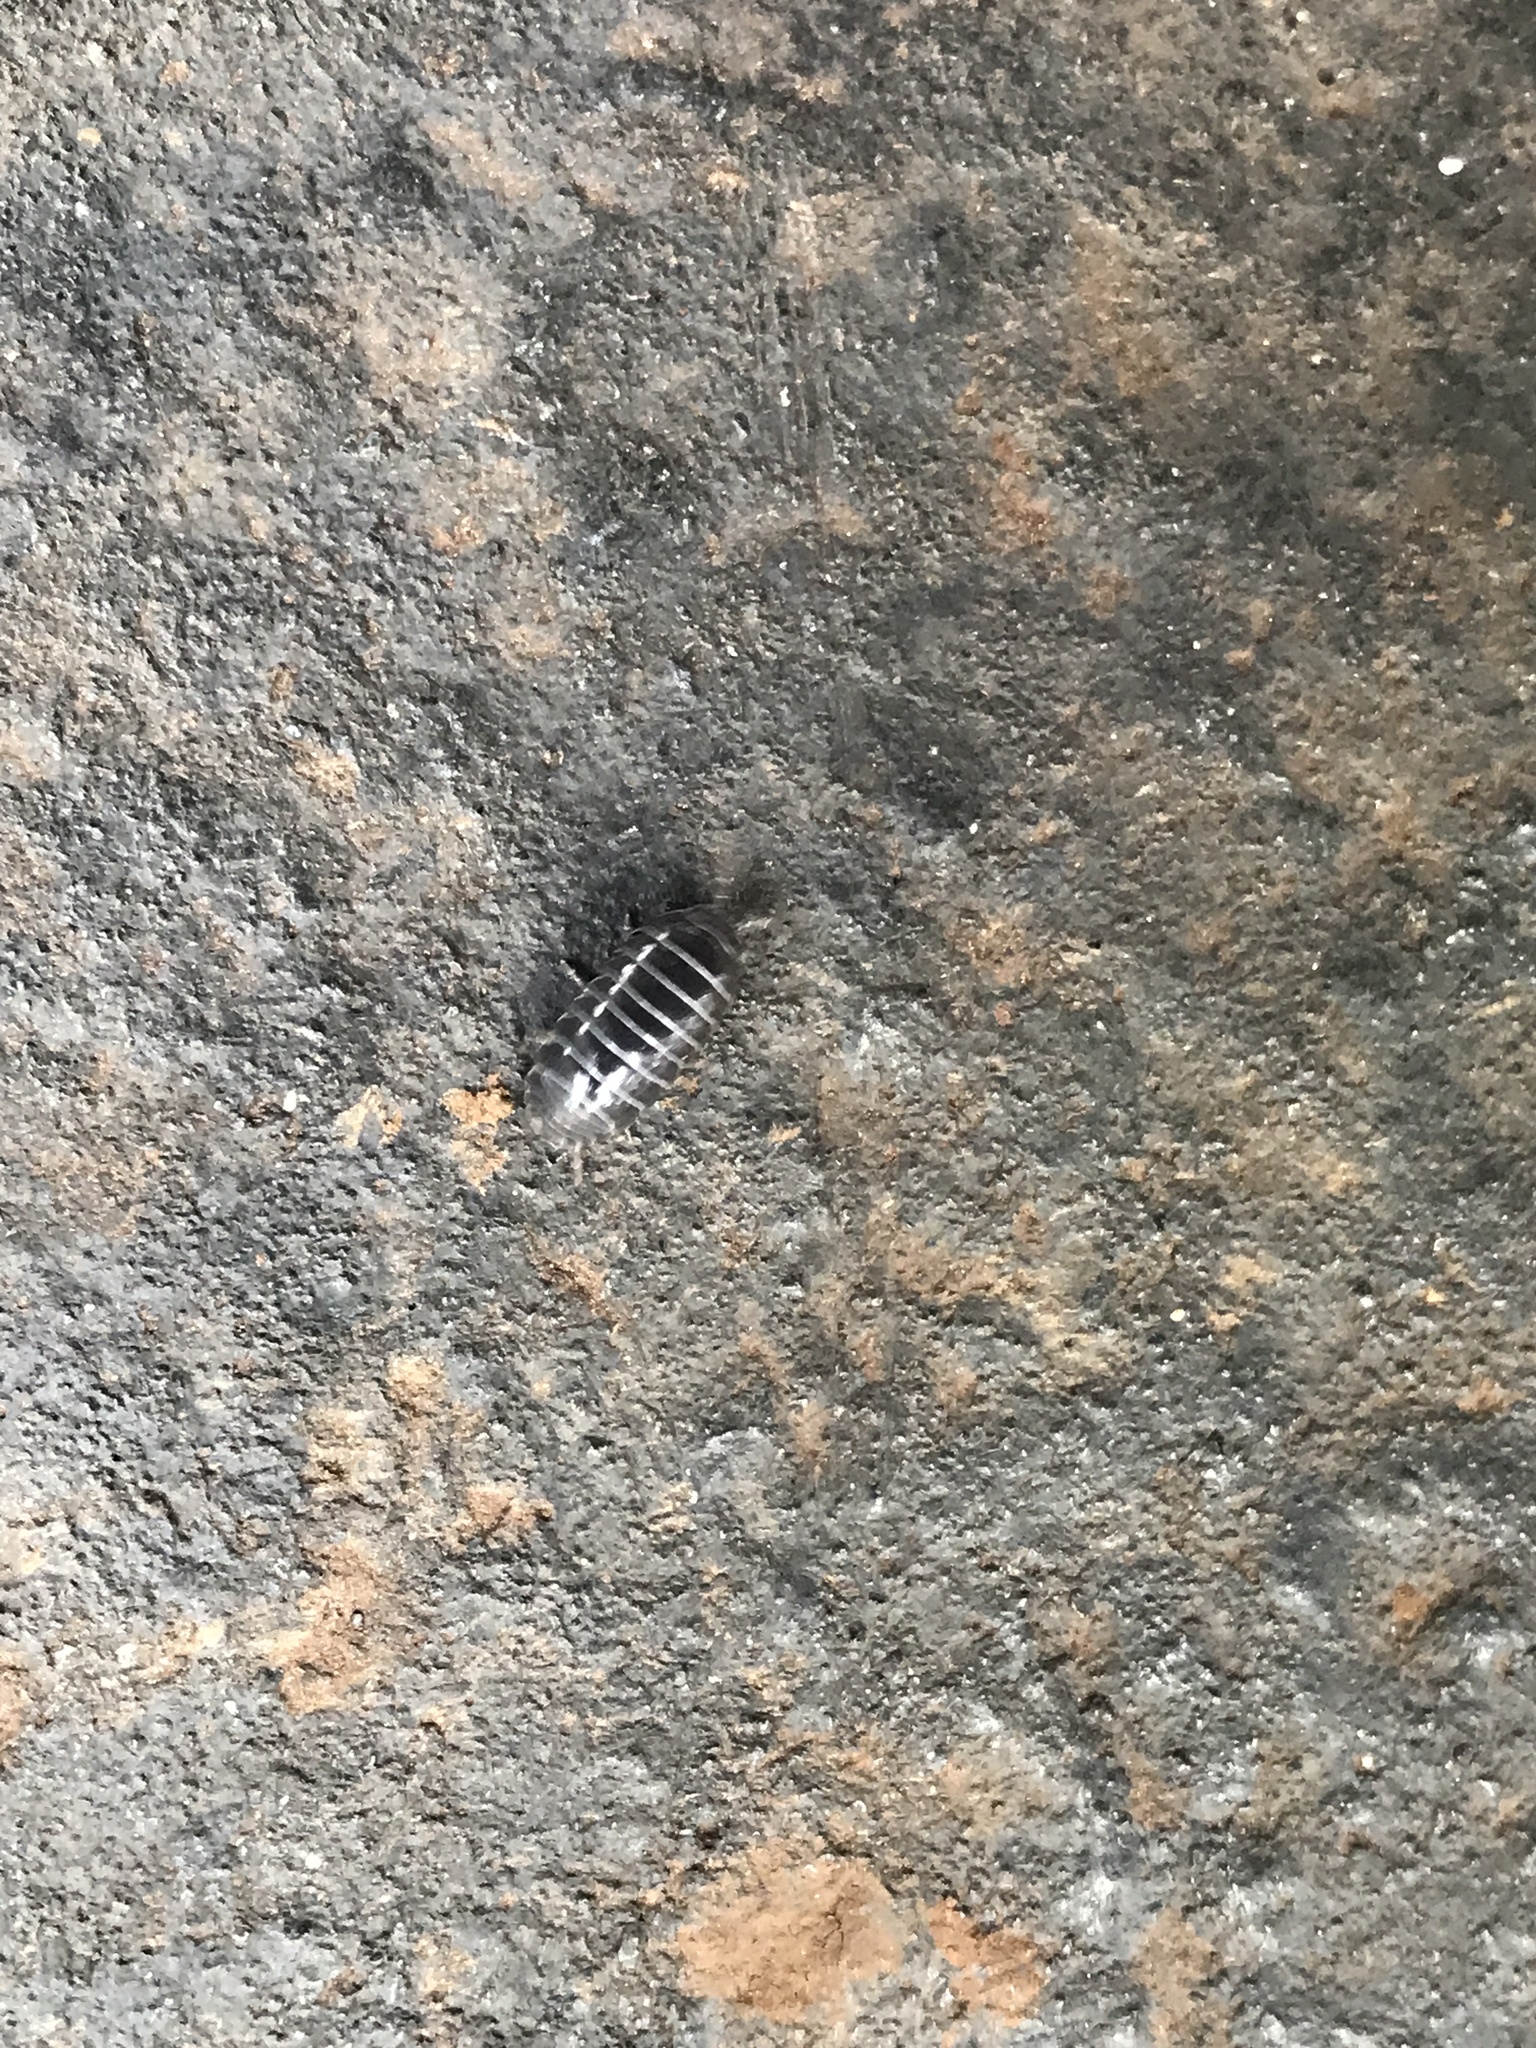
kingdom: Animalia
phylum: Arthropoda
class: Malacostraca
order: Isopoda
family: Armadillidiidae
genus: Armadillidium
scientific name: Armadillidium vulgare
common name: Common pill woodlouse
